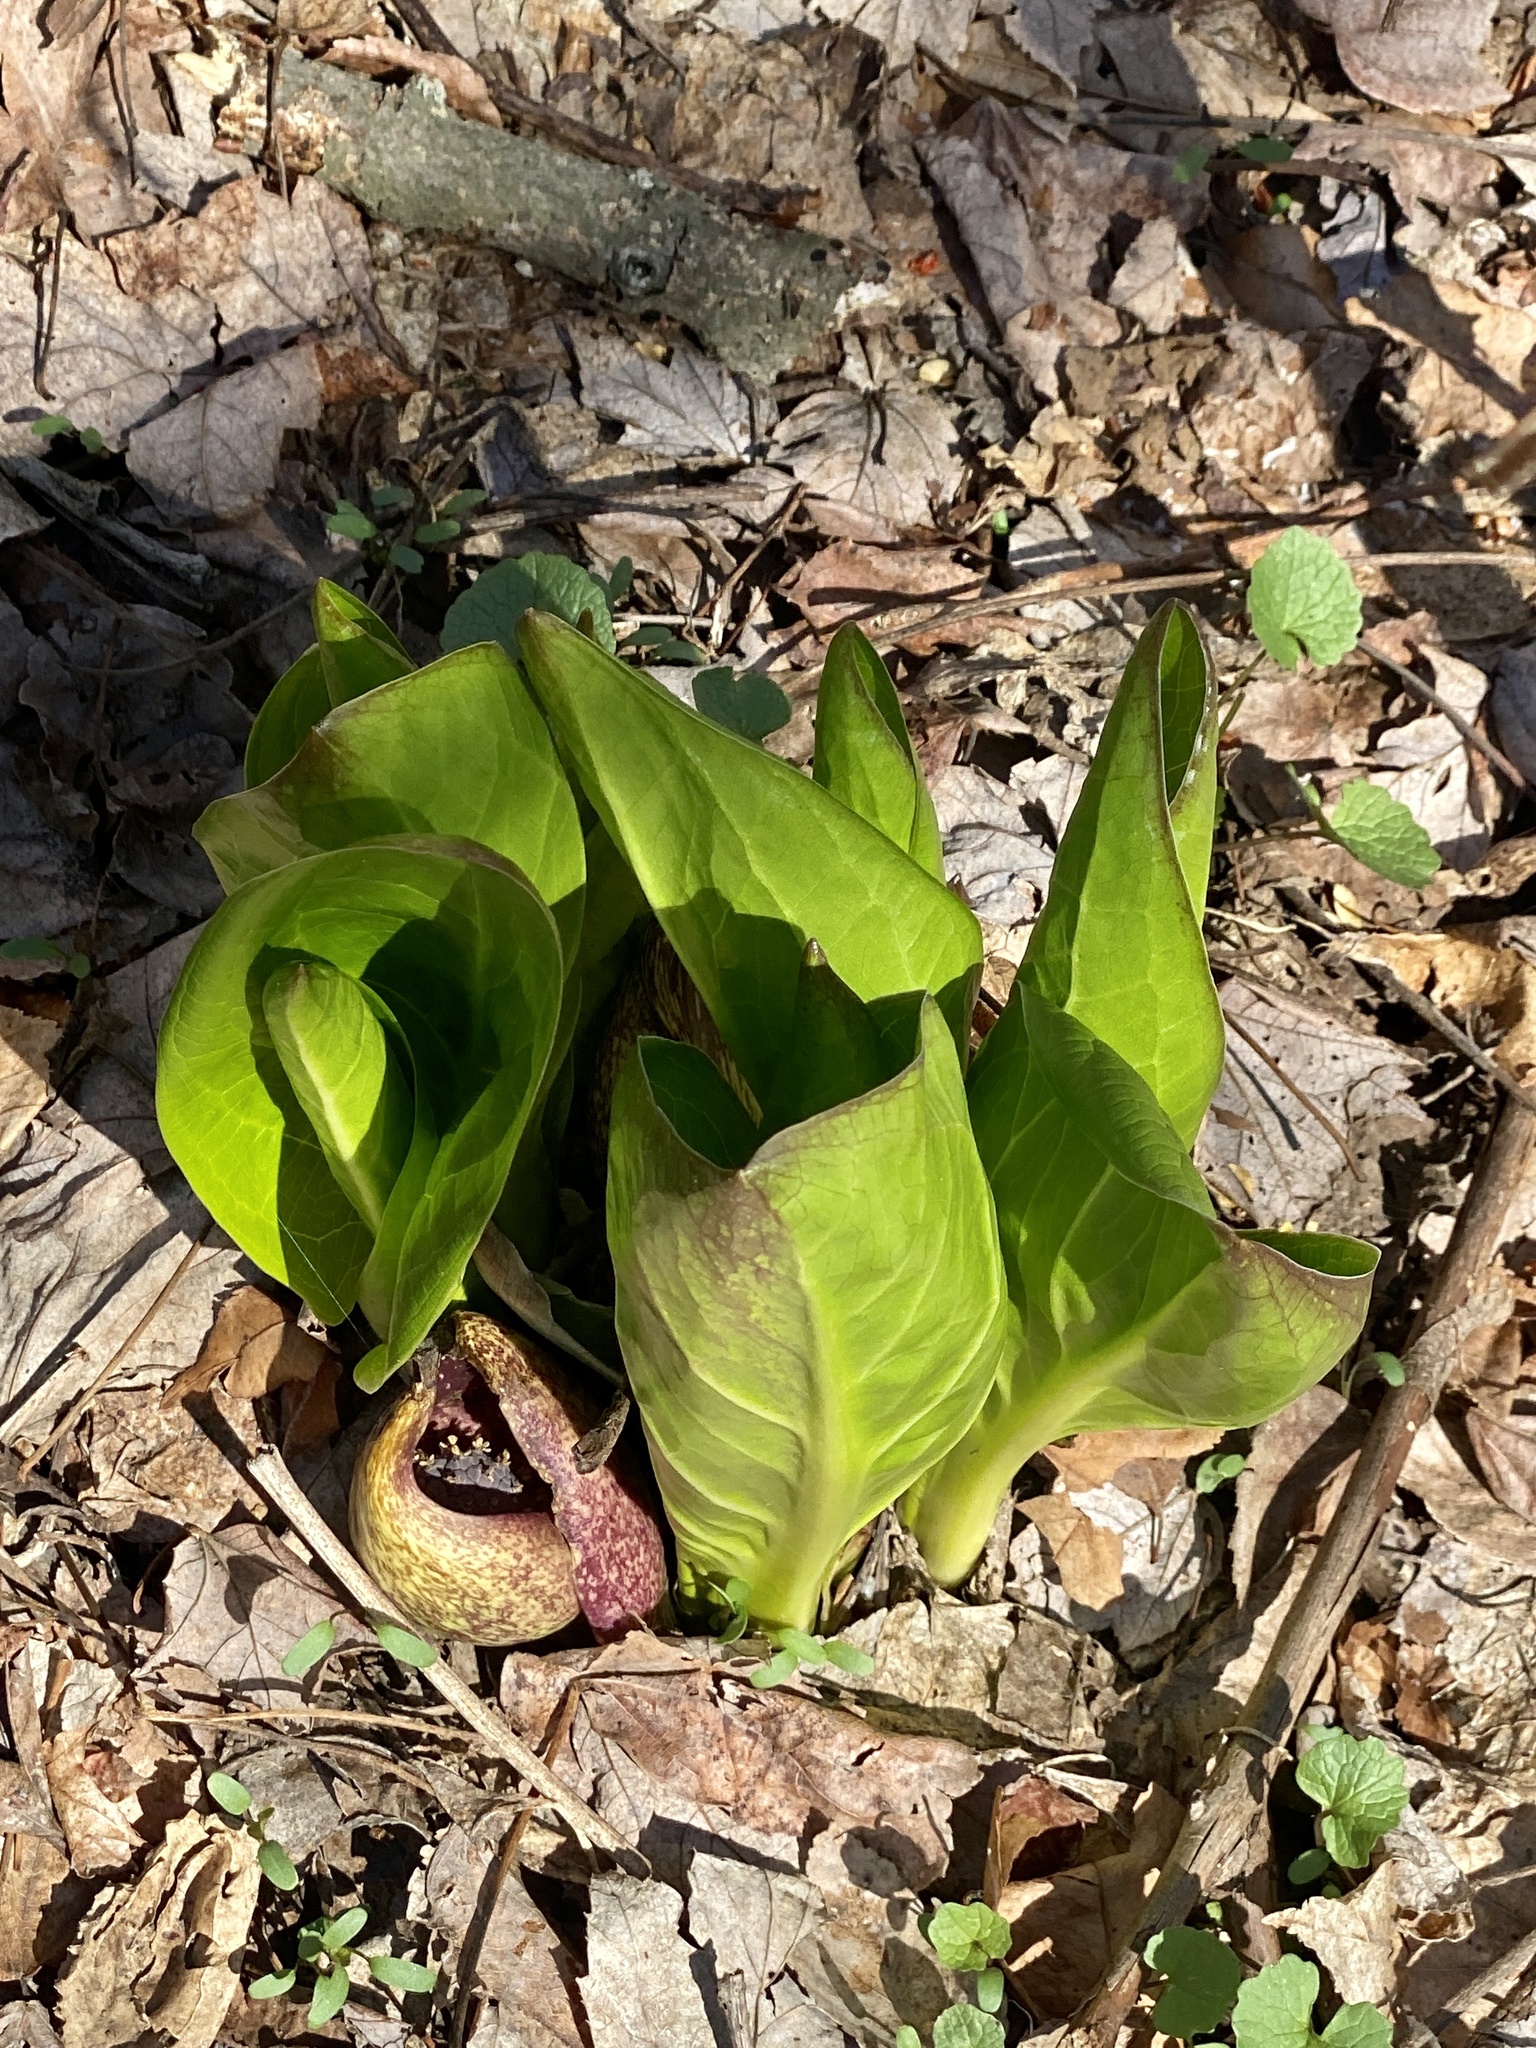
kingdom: Plantae
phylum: Tracheophyta
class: Liliopsida
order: Alismatales
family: Araceae
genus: Symplocarpus
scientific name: Symplocarpus foetidus
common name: Eastern skunk cabbage
